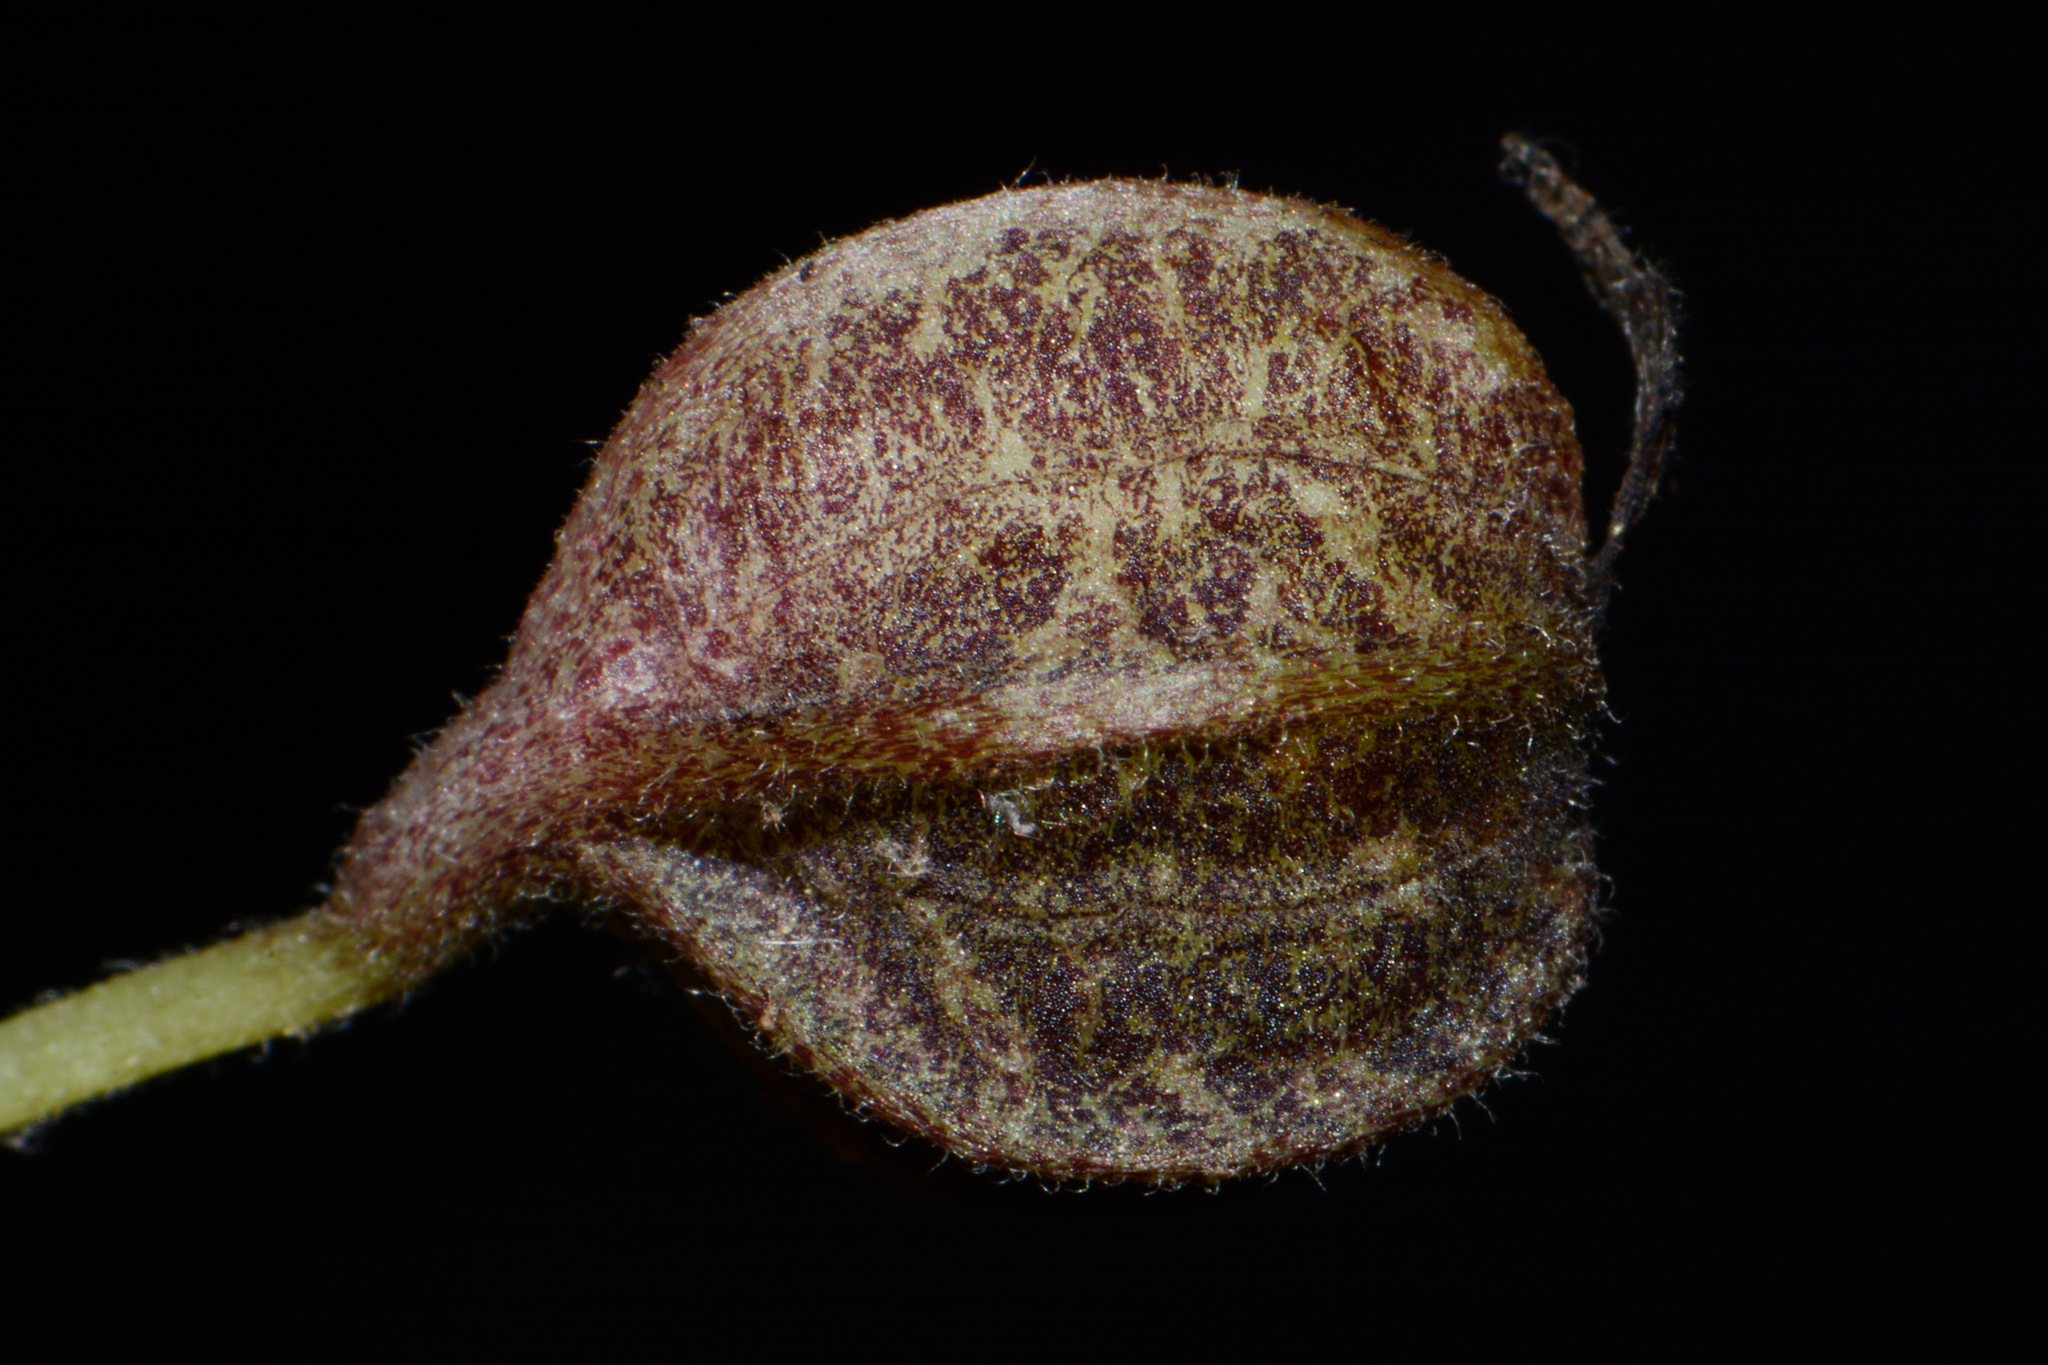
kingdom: Plantae
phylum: Tracheophyta
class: Magnoliopsida
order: Piperales
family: Aristolochiaceae
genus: Endodeca
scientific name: Endodeca serpentaria
